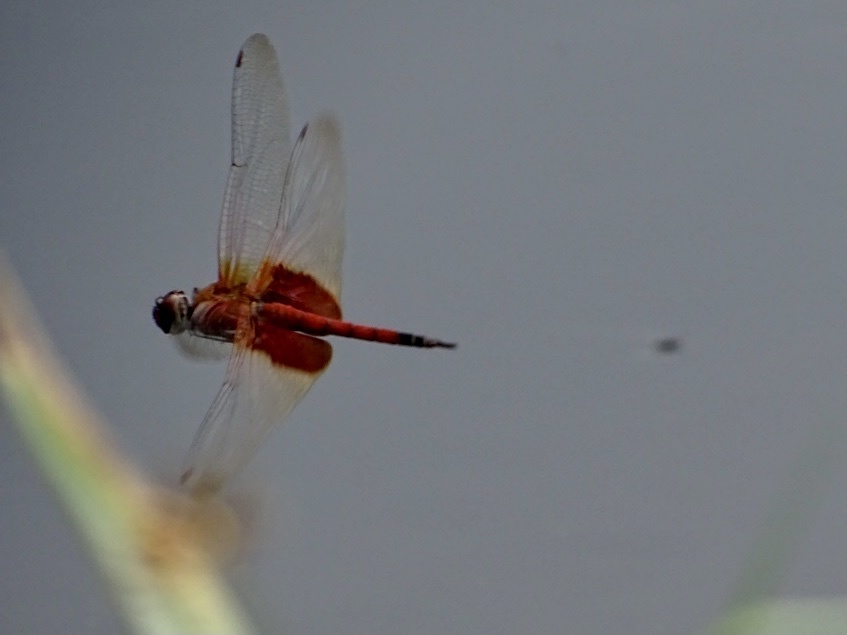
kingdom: Animalia
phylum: Arthropoda
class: Insecta
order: Odonata
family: Libellulidae
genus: Tramea
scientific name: Tramea virginia
